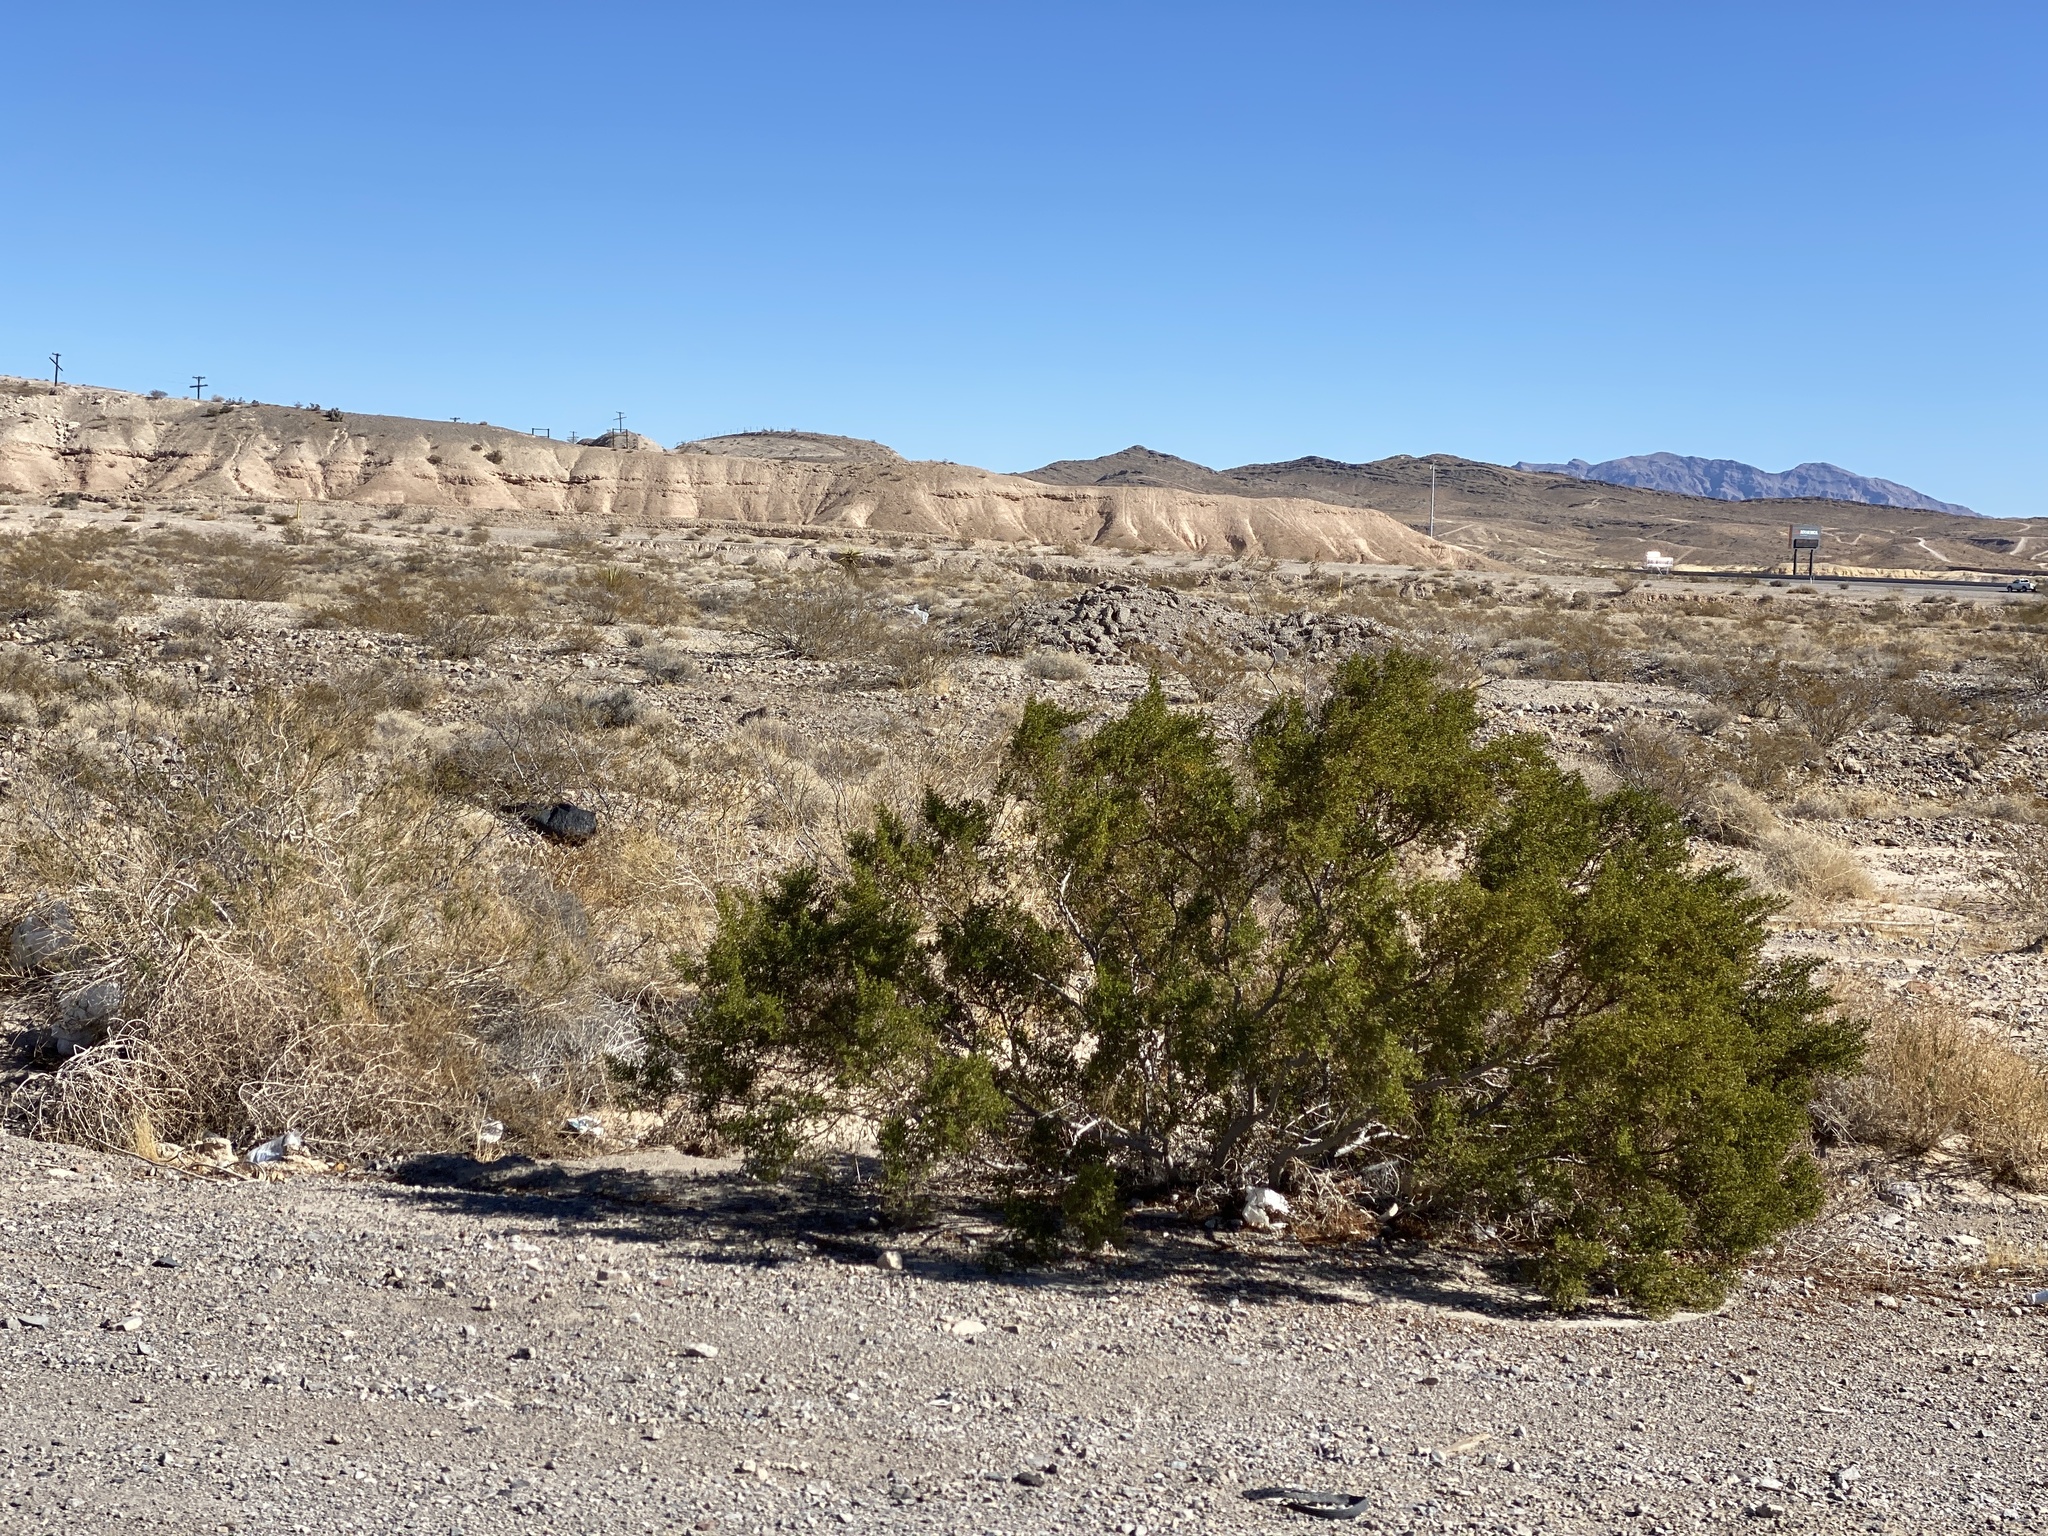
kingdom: Plantae
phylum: Tracheophyta
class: Magnoliopsida
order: Zygophyllales
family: Zygophyllaceae
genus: Larrea
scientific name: Larrea tridentata
